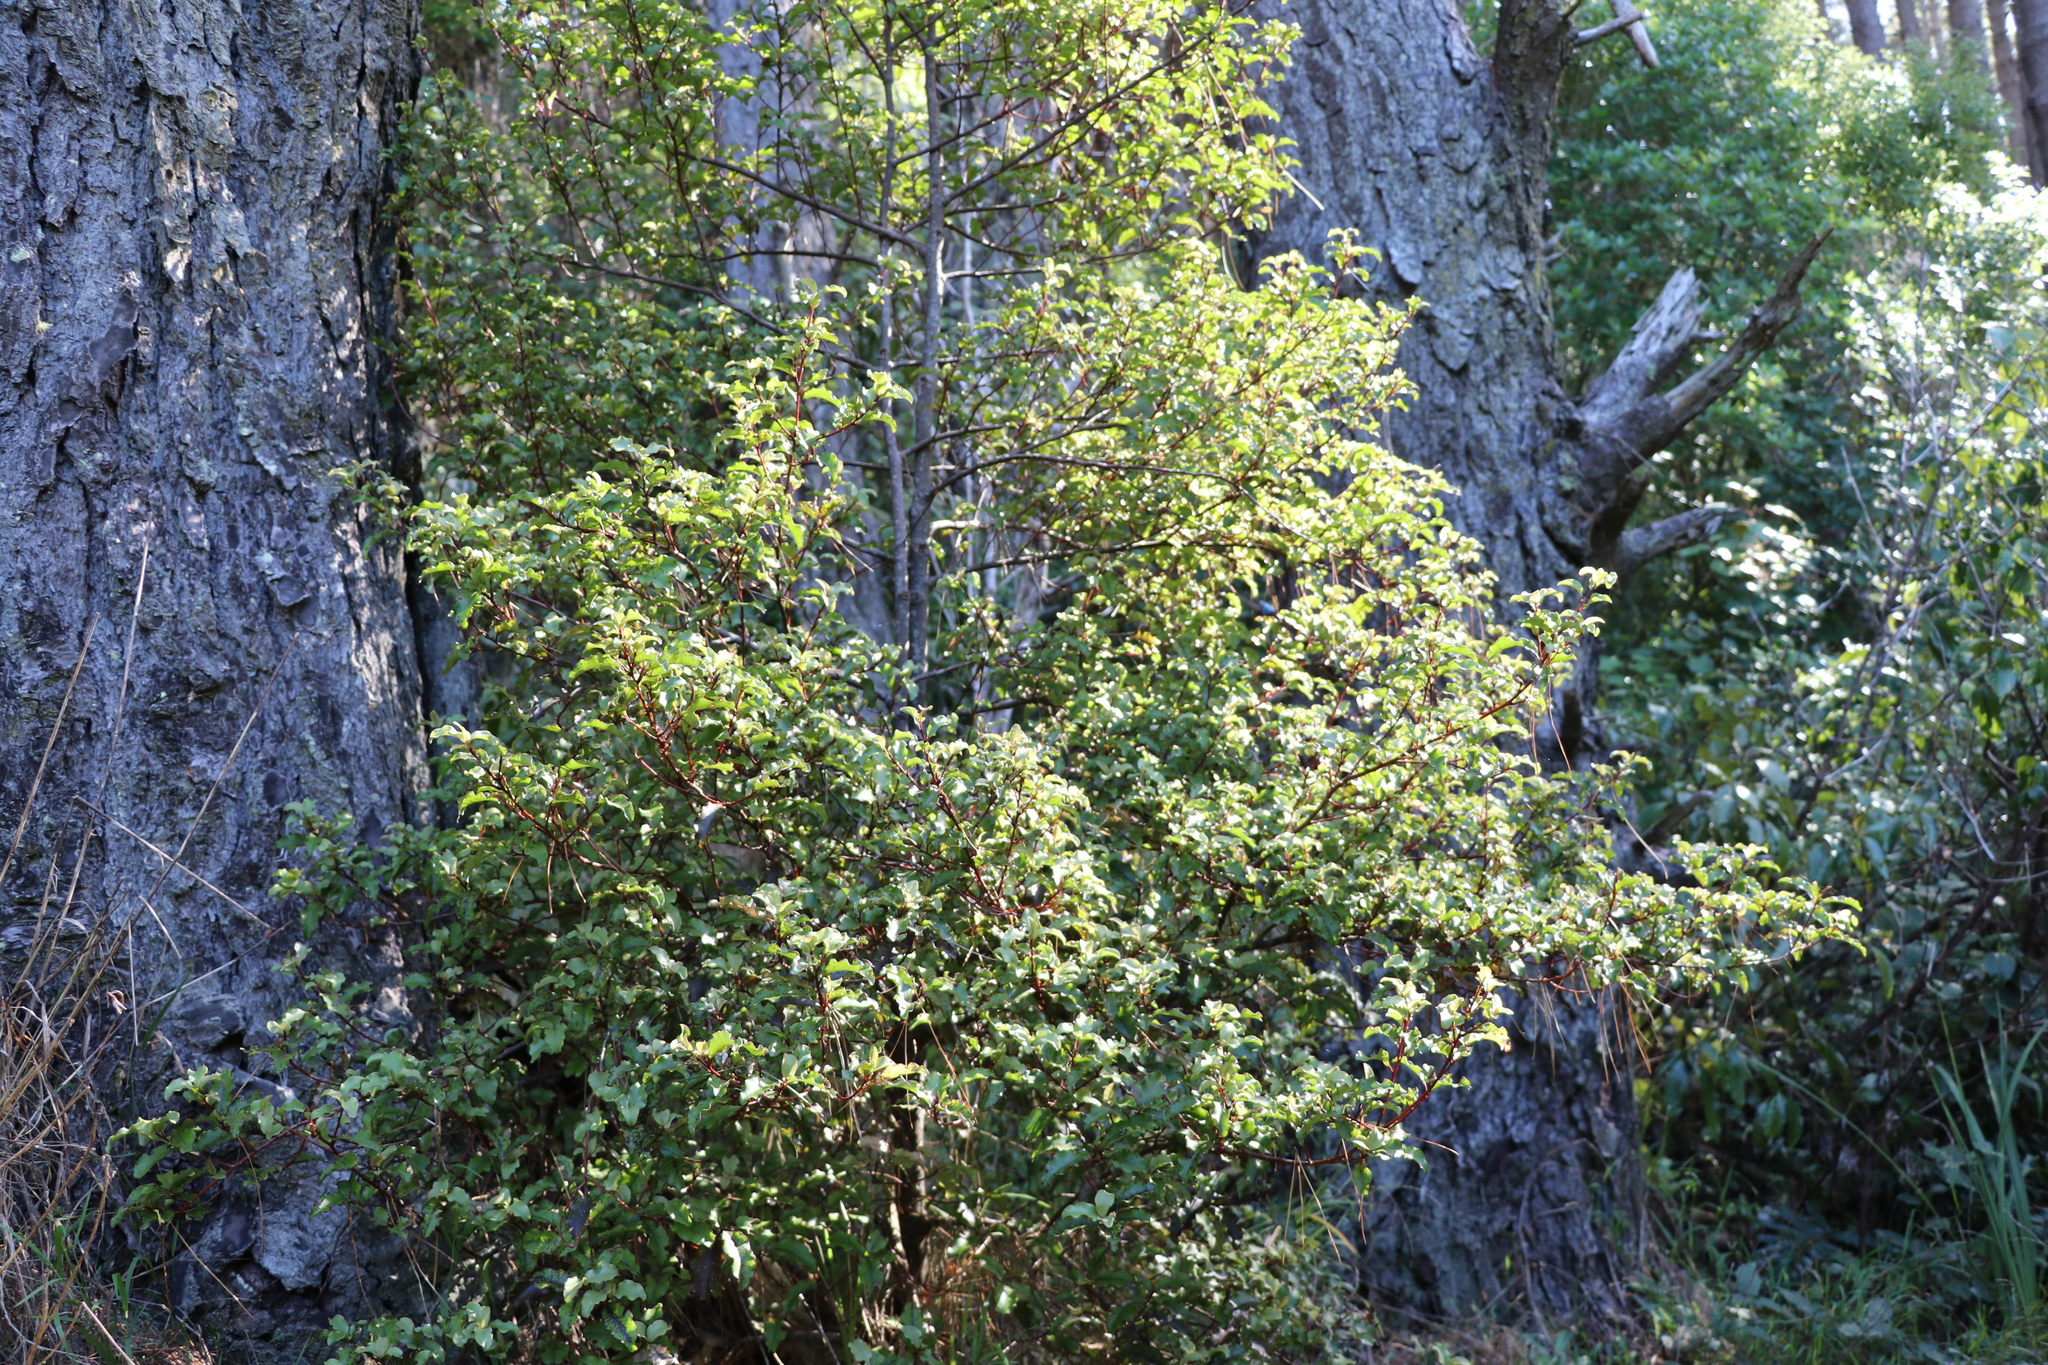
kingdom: Plantae
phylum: Tracheophyta
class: Magnoliopsida
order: Ericales
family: Primulaceae
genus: Myrsine
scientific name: Myrsine australis
